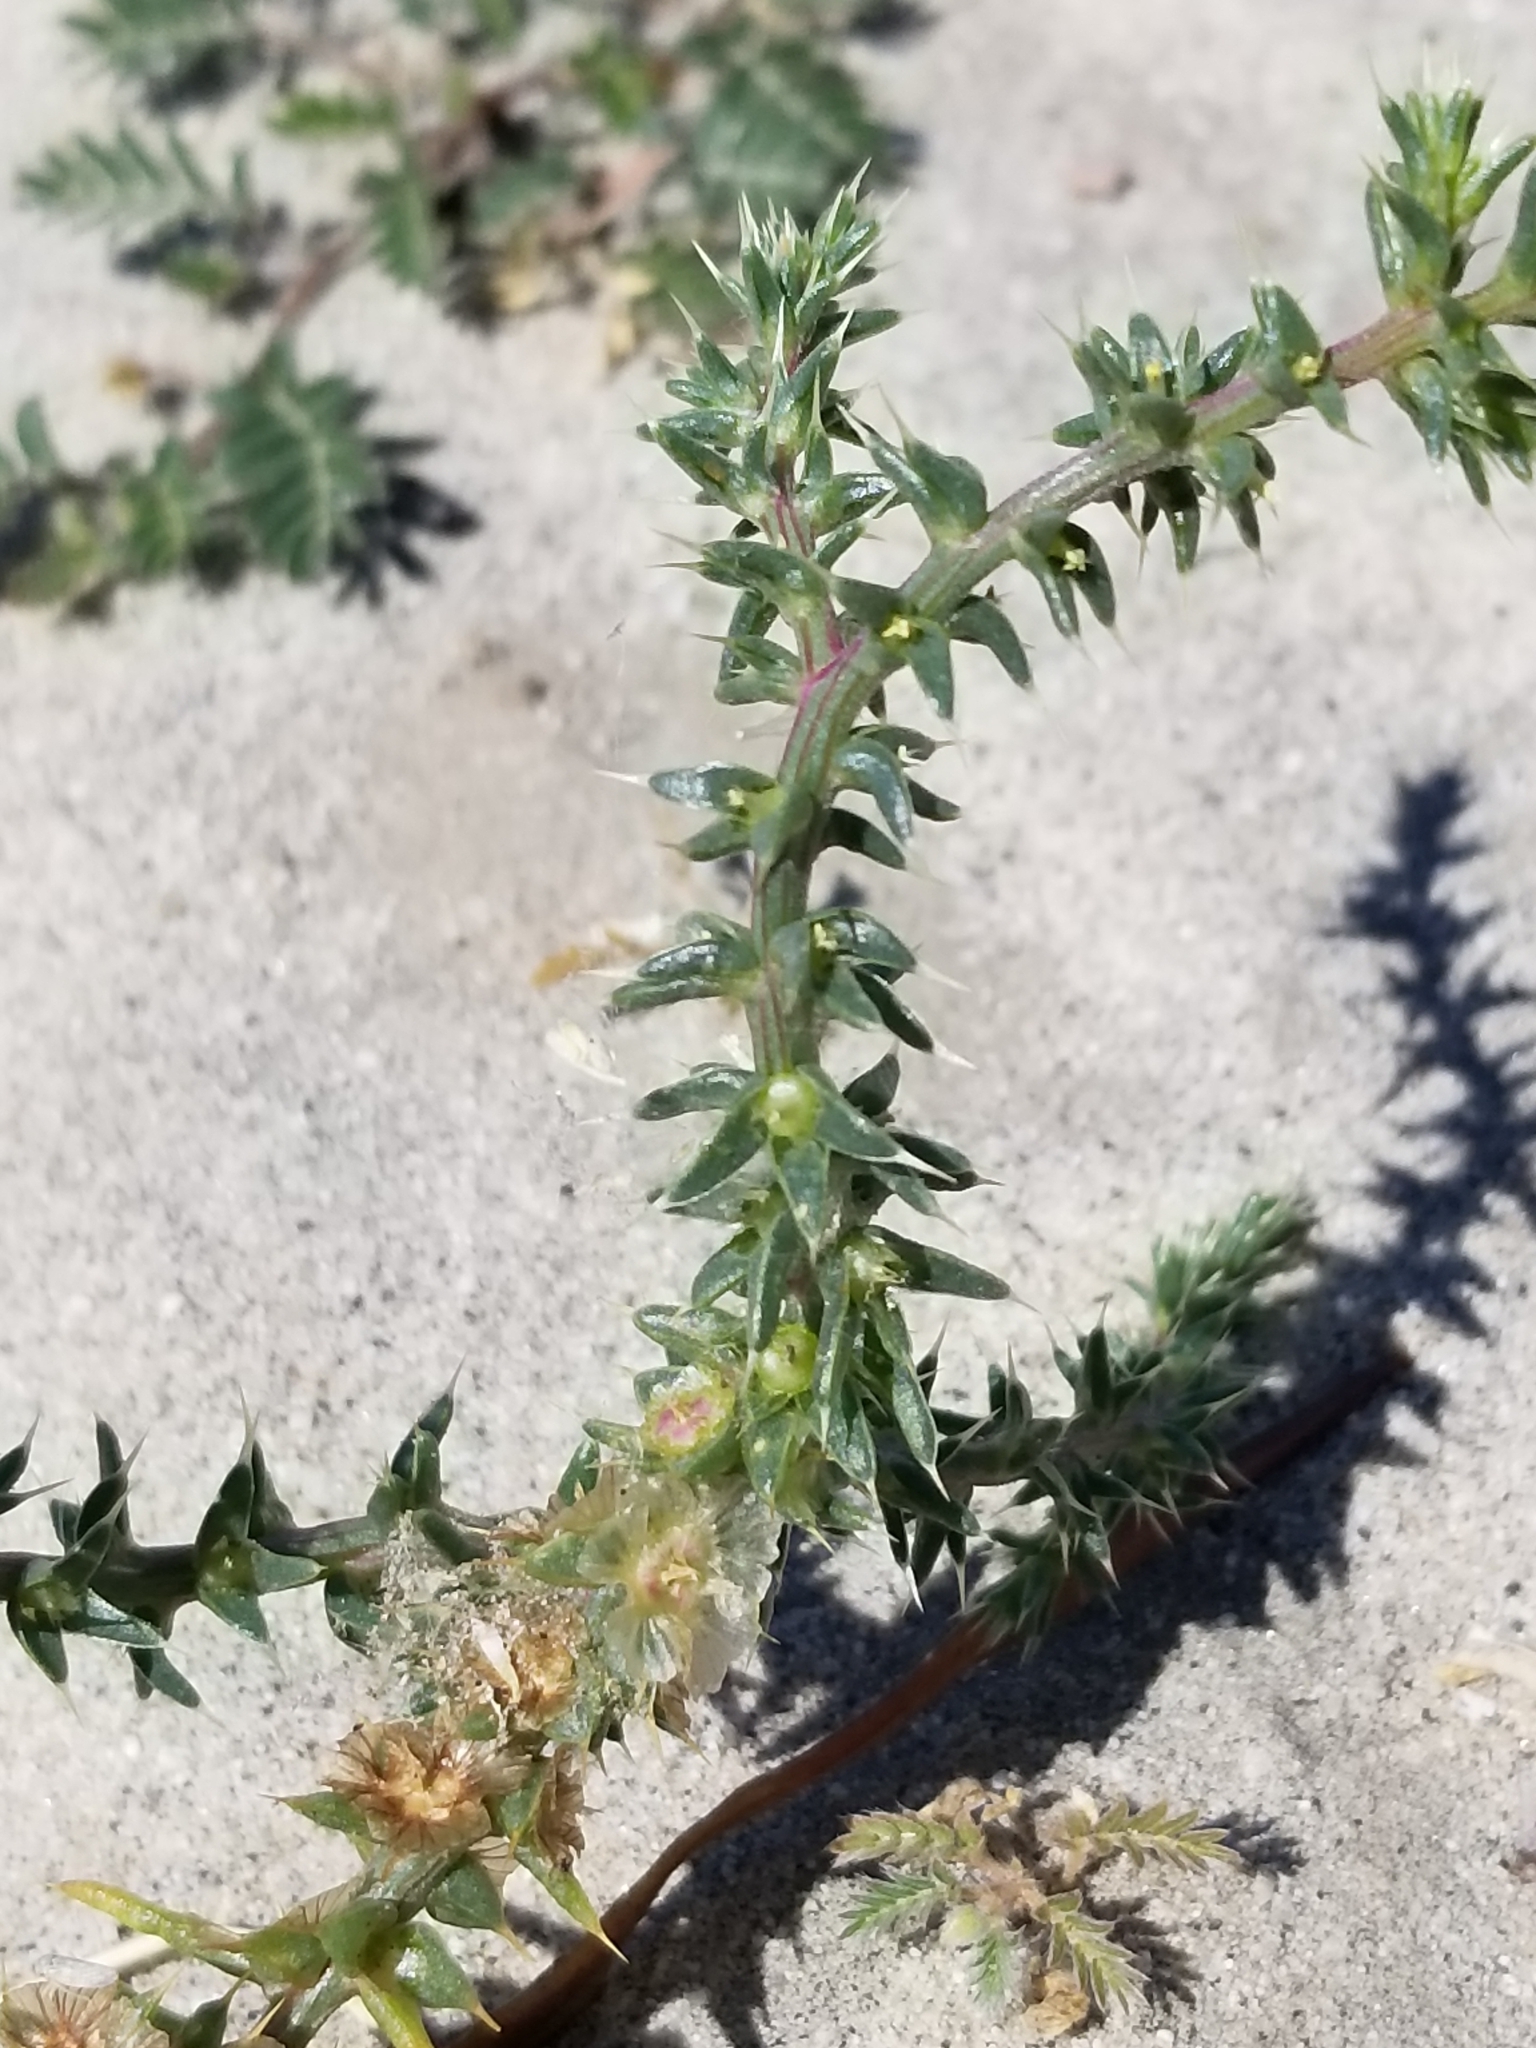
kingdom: Plantae
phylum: Tracheophyta
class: Magnoliopsida
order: Caryophyllales
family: Amaranthaceae
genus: Salsola
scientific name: Salsola tragus
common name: Prickly russian thistle
